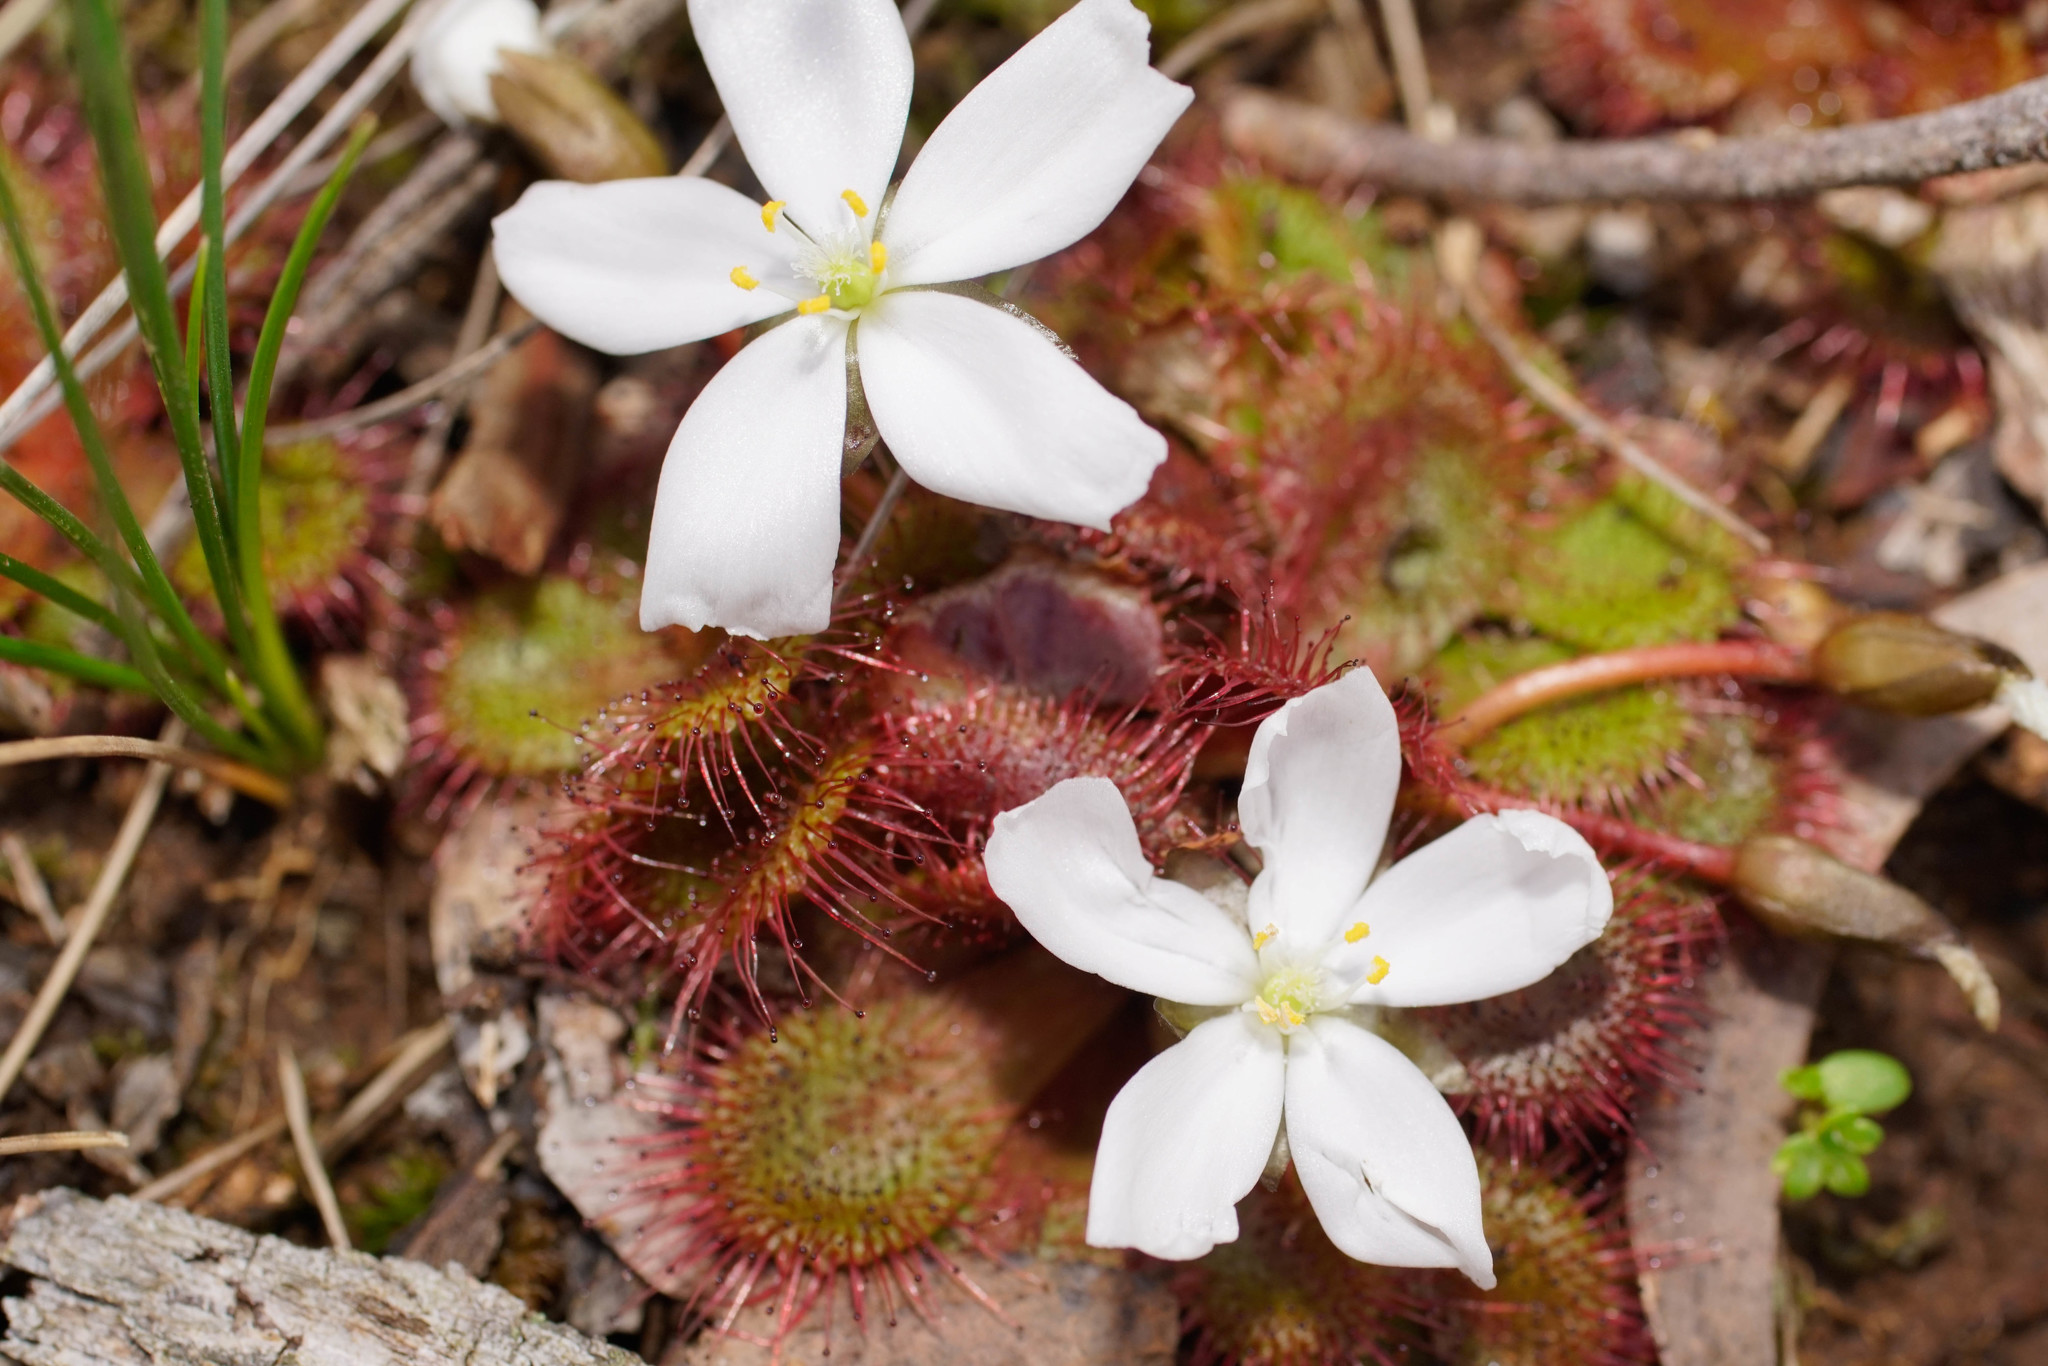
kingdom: Plantae
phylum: Tracheophyta
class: Magnoliopsida
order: Caryophyllales
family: Droseraceae
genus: Drosera
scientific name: Drosera aberrans
